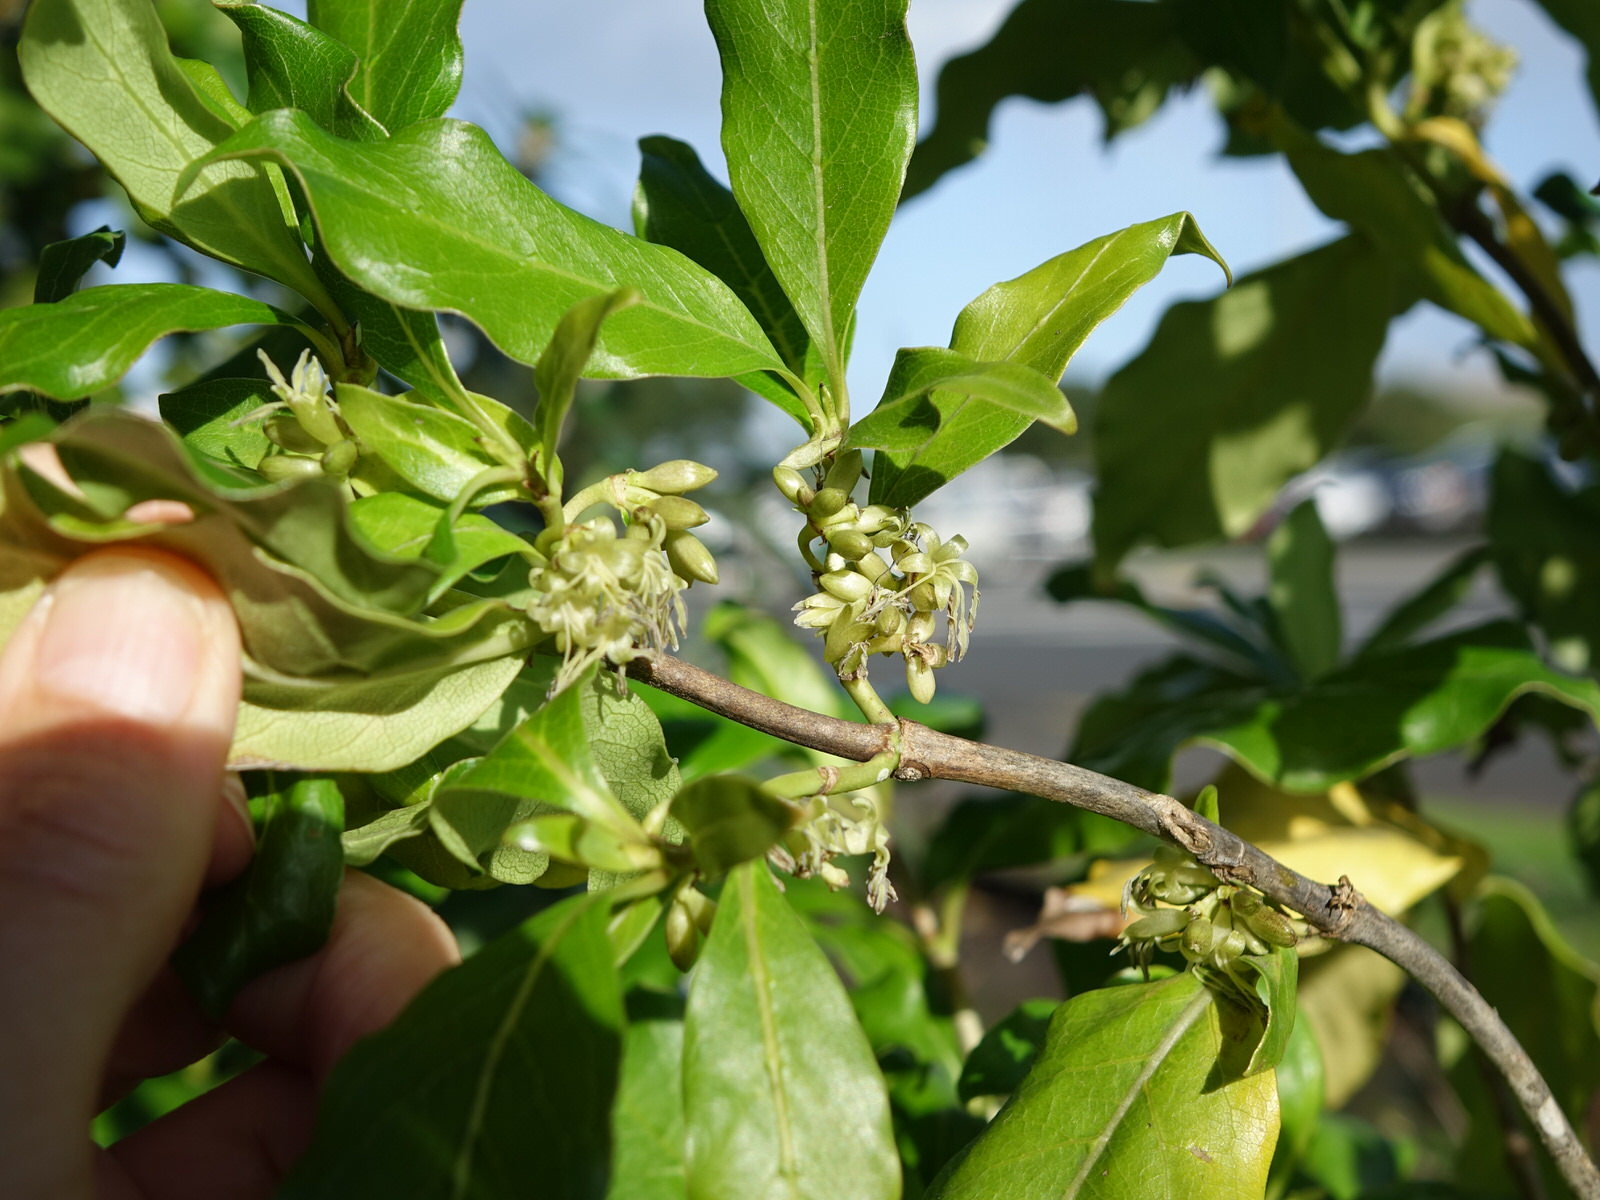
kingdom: Plantae
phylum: Tracheophyta
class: Magnoliopsida
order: Gentianales
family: Rubiaceae
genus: Coprosma
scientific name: Coprosma macrocarpa
